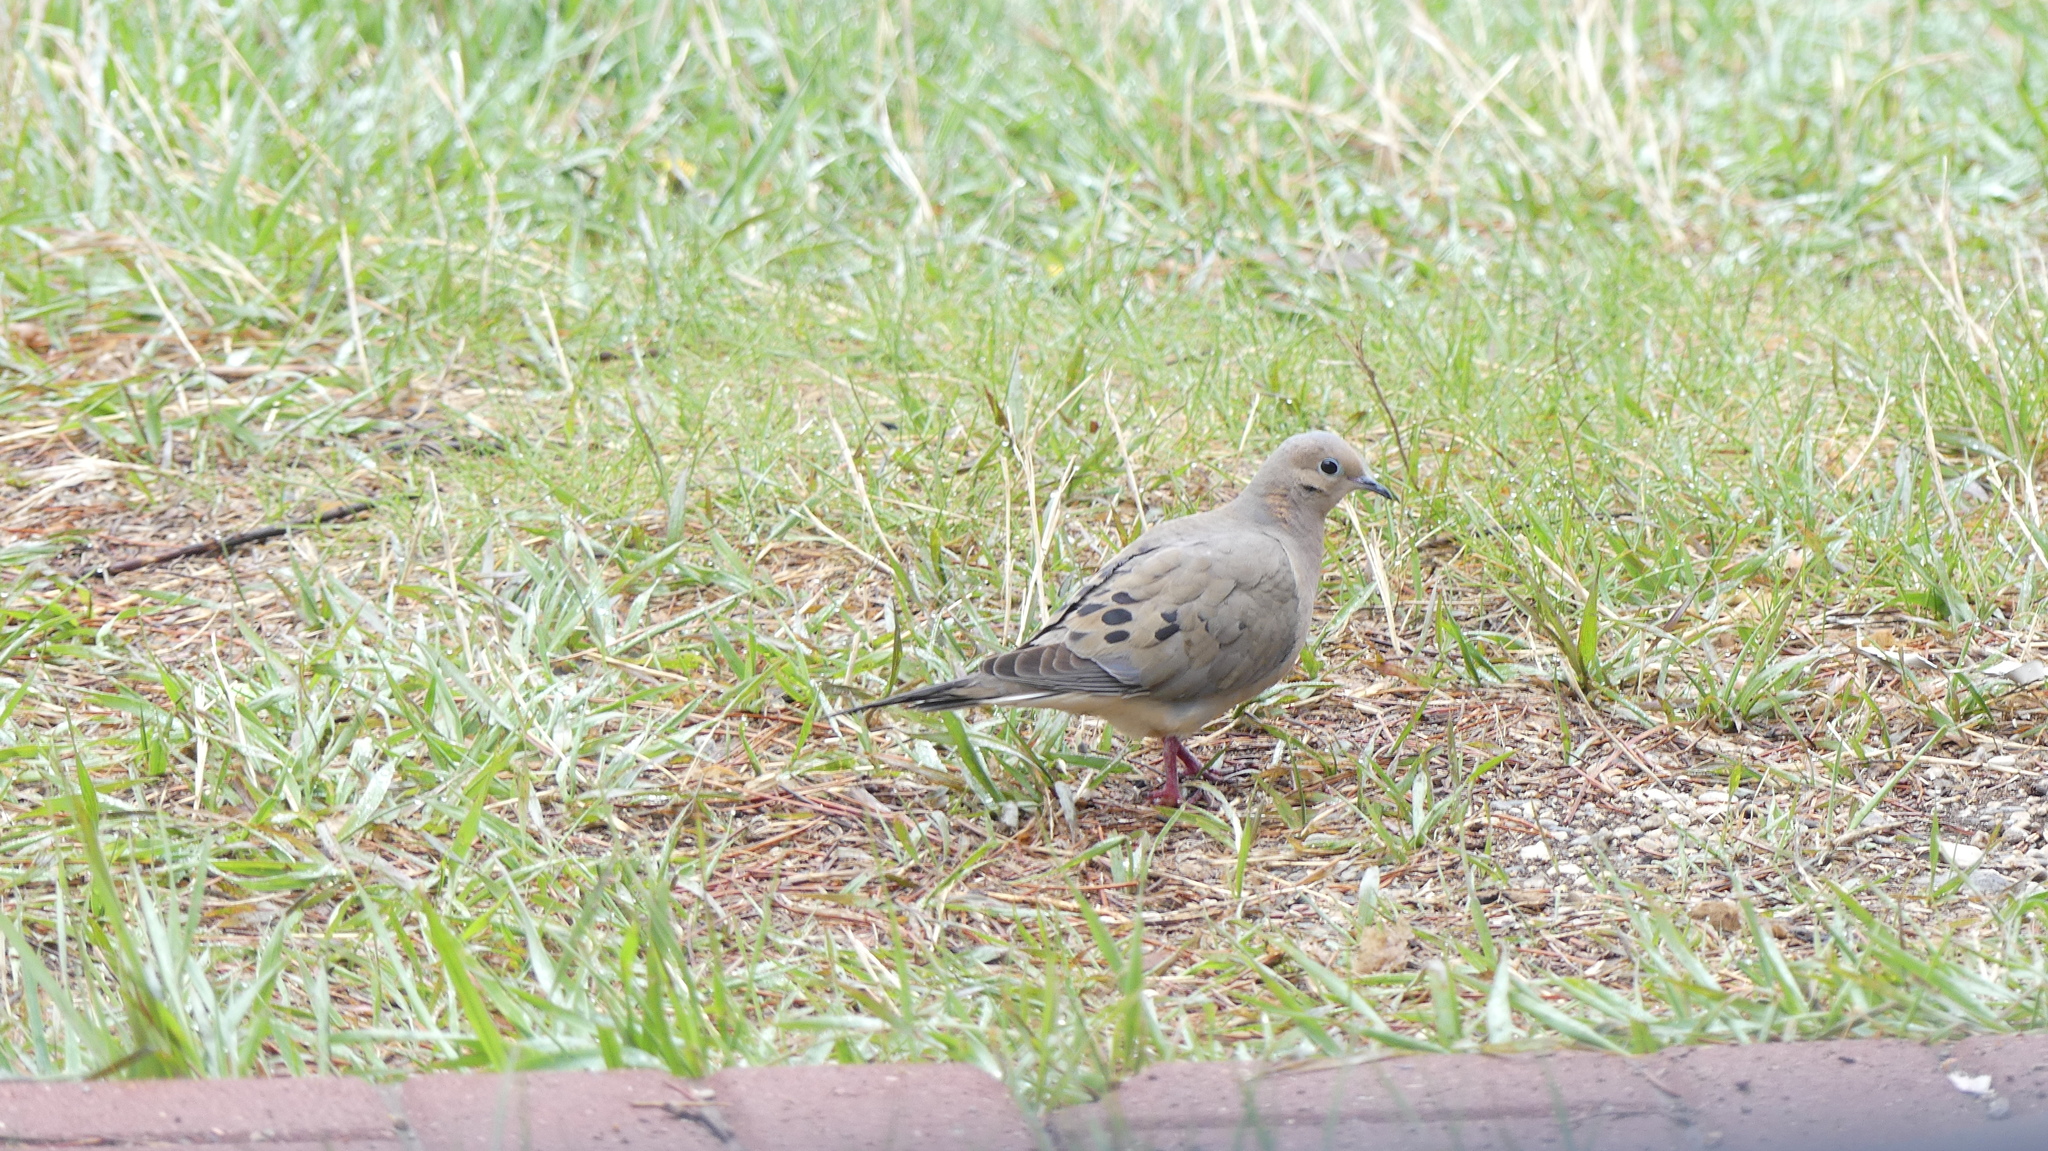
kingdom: Animalia
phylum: Chordata
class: Aves
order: Columbiformes
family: Columbidae
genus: Zenaida
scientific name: Zenaida macroura
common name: Mourning dove
